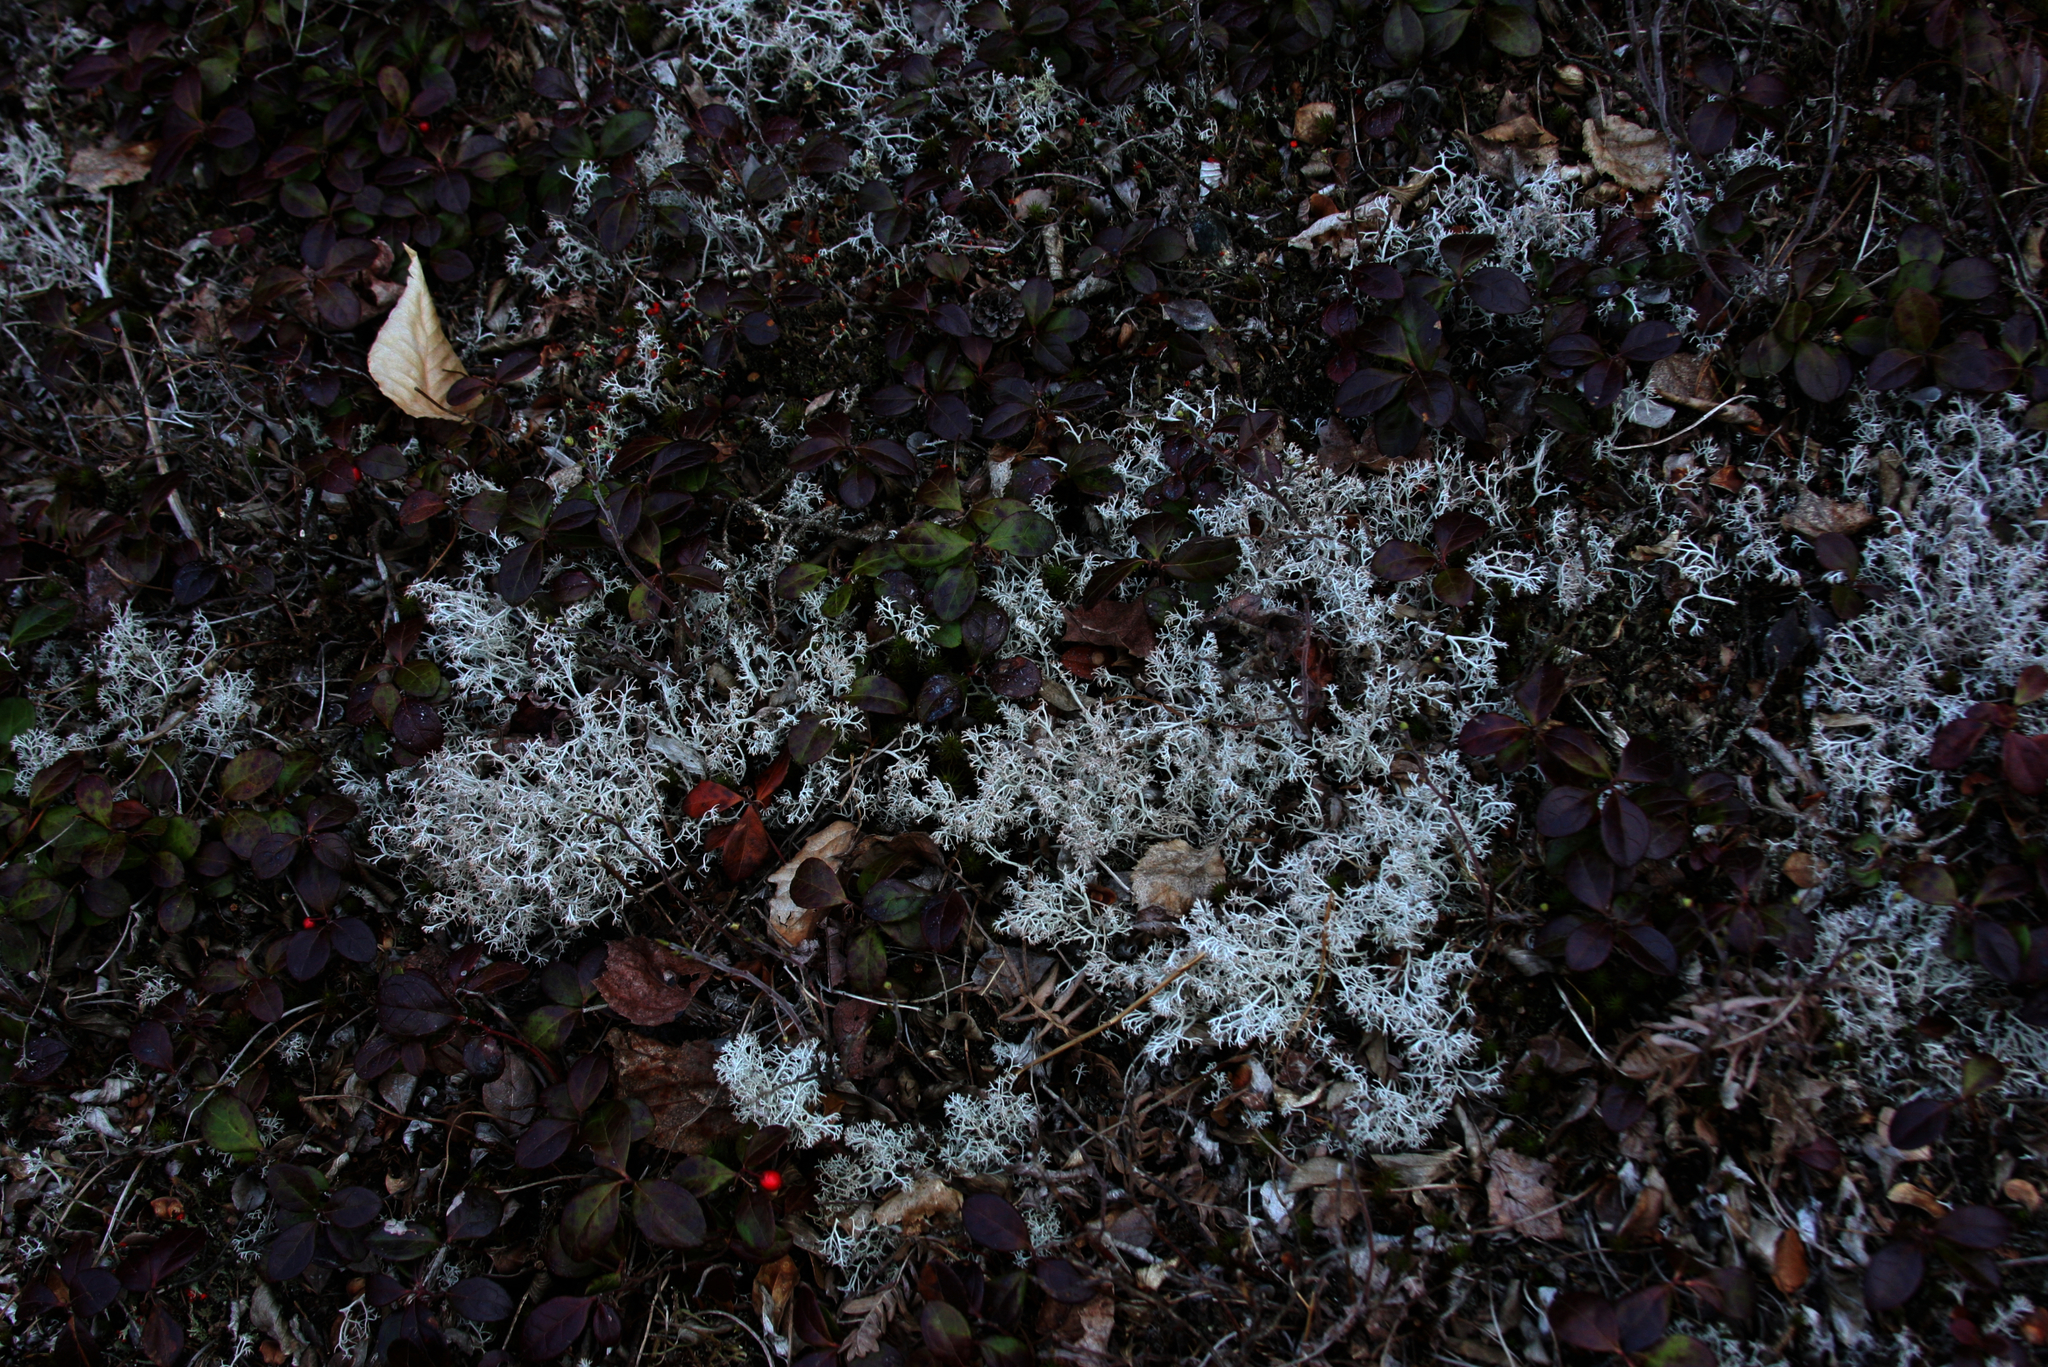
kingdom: Plantae
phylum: Tracheophyta
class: Magnoliopsida
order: Ericales
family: Ericaceae
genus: Gaultheria
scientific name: Gaultheria procumbens
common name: Checkerberry
